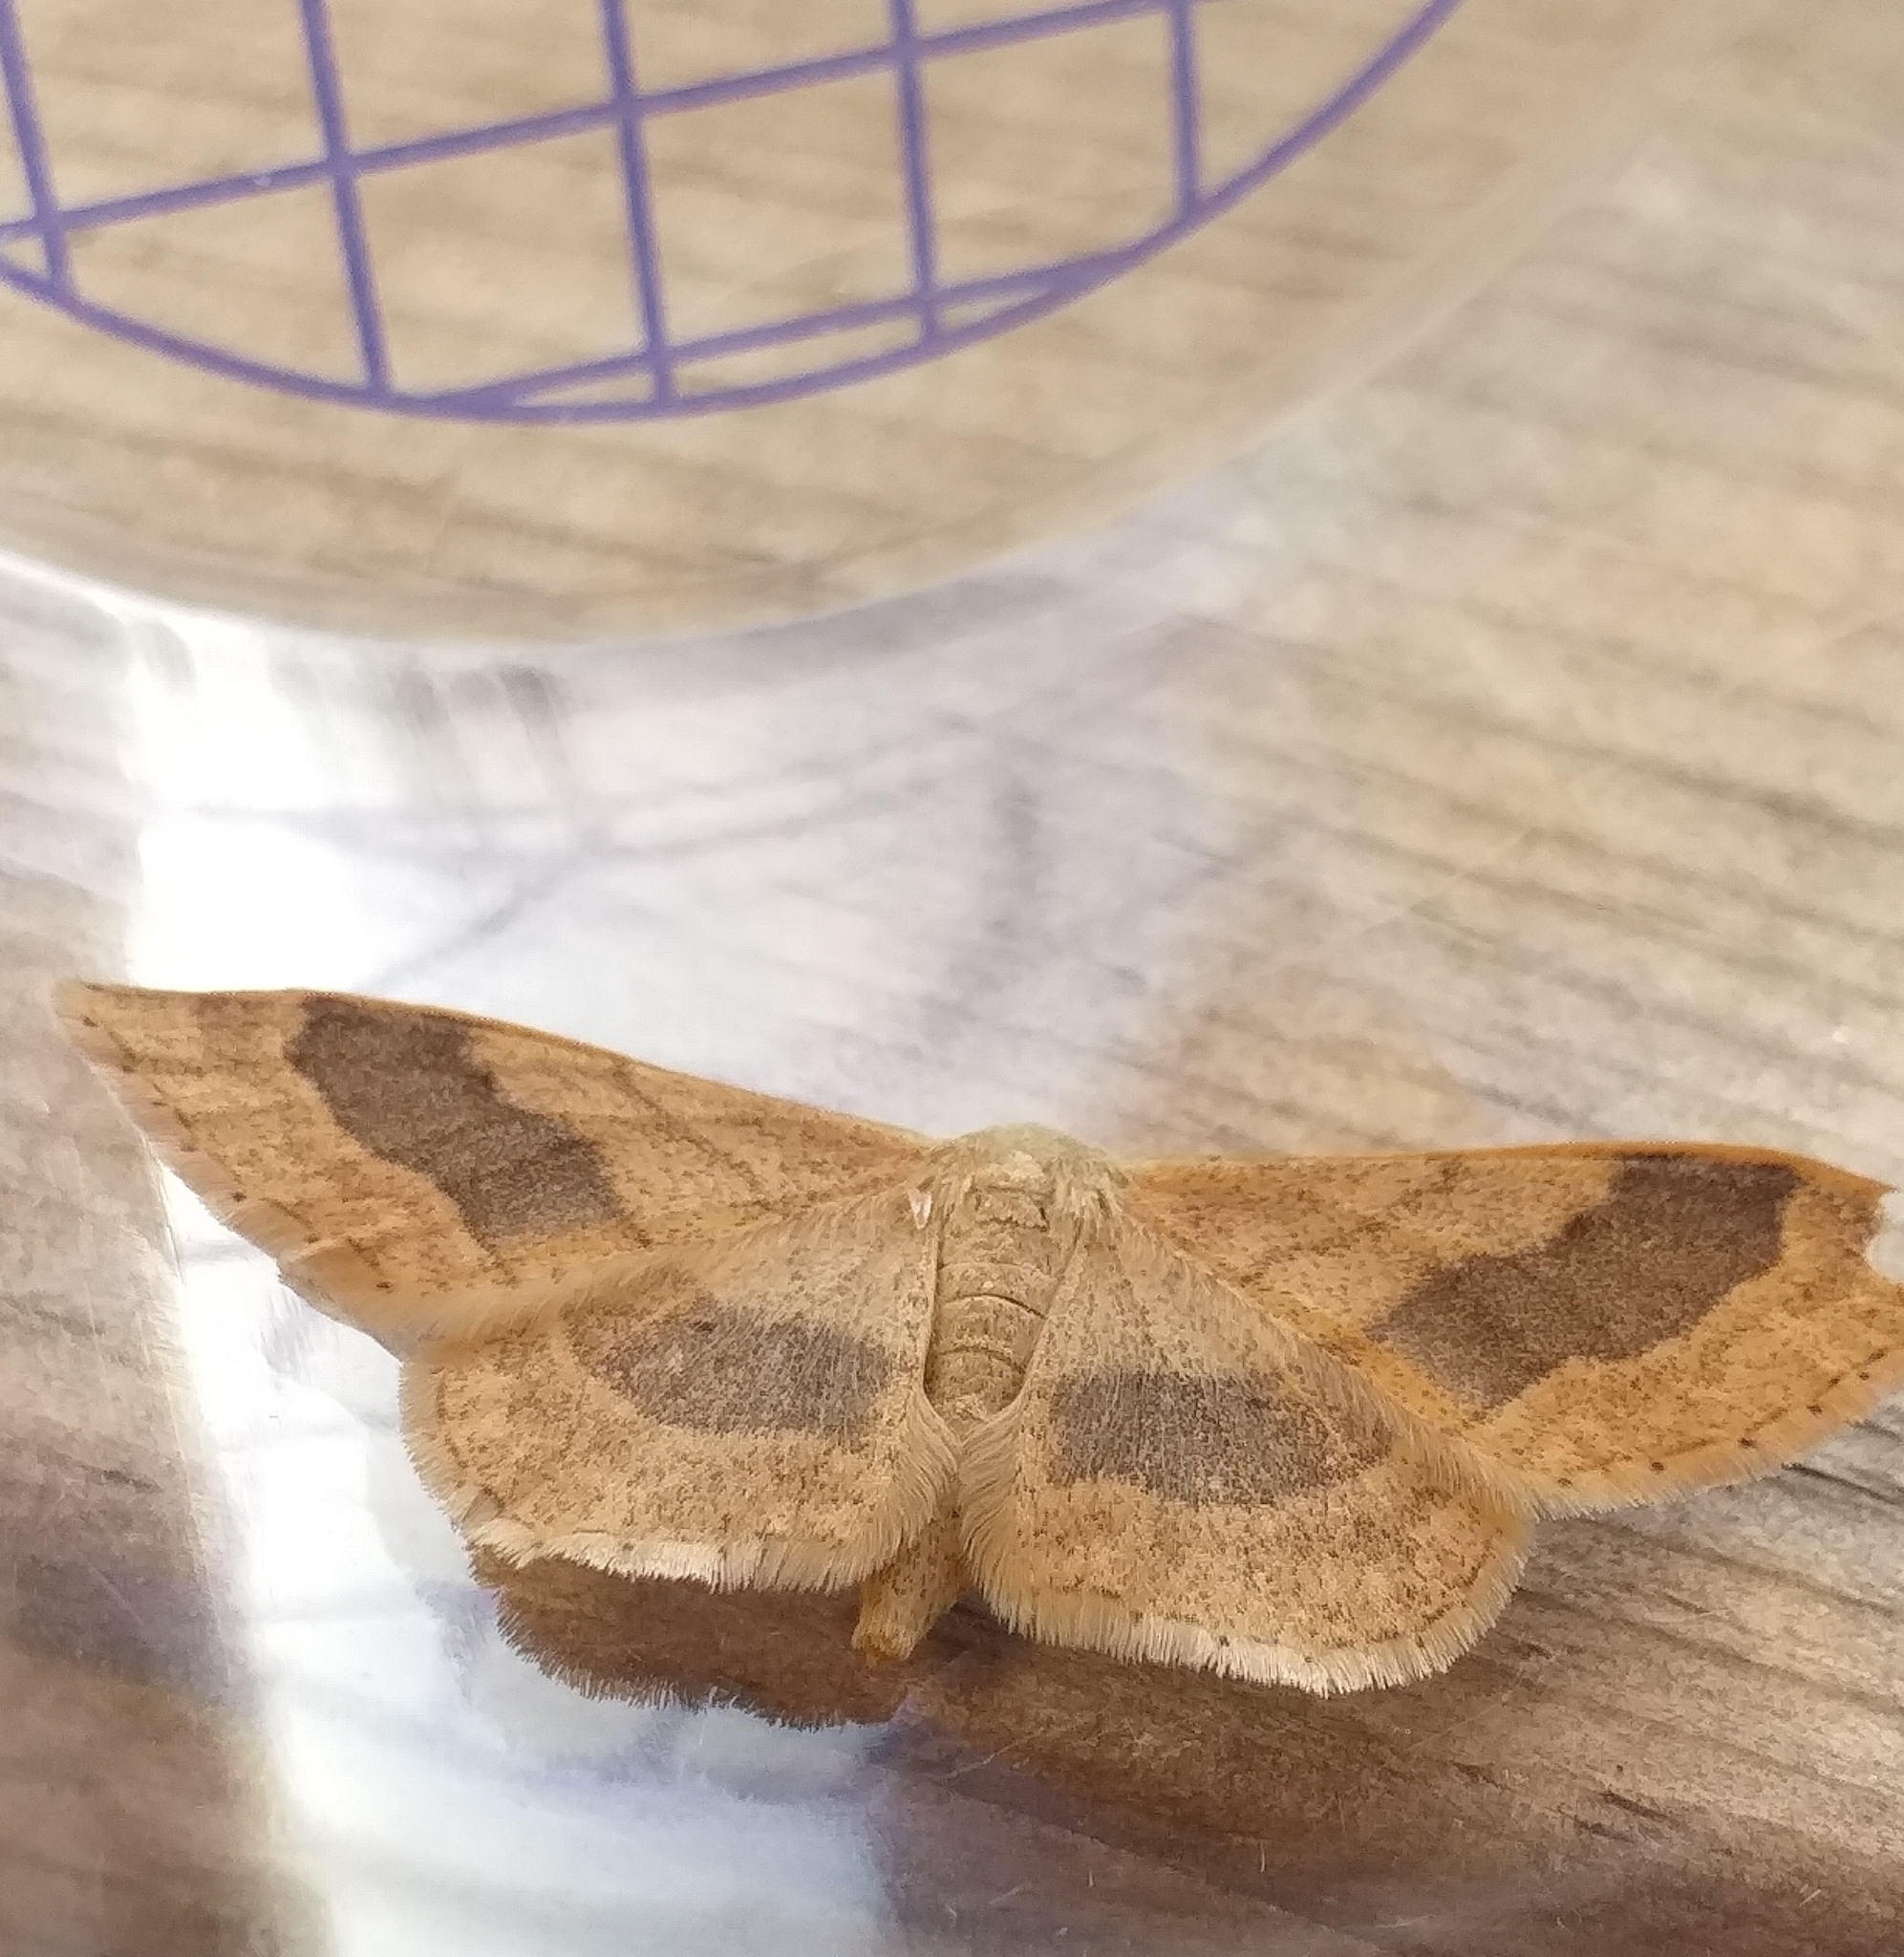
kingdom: Animalia
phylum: Arthropoda
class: Insecta
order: Lepidoptera
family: Geometridae
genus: Idaea
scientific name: Idaea aversata
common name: Riband wave
